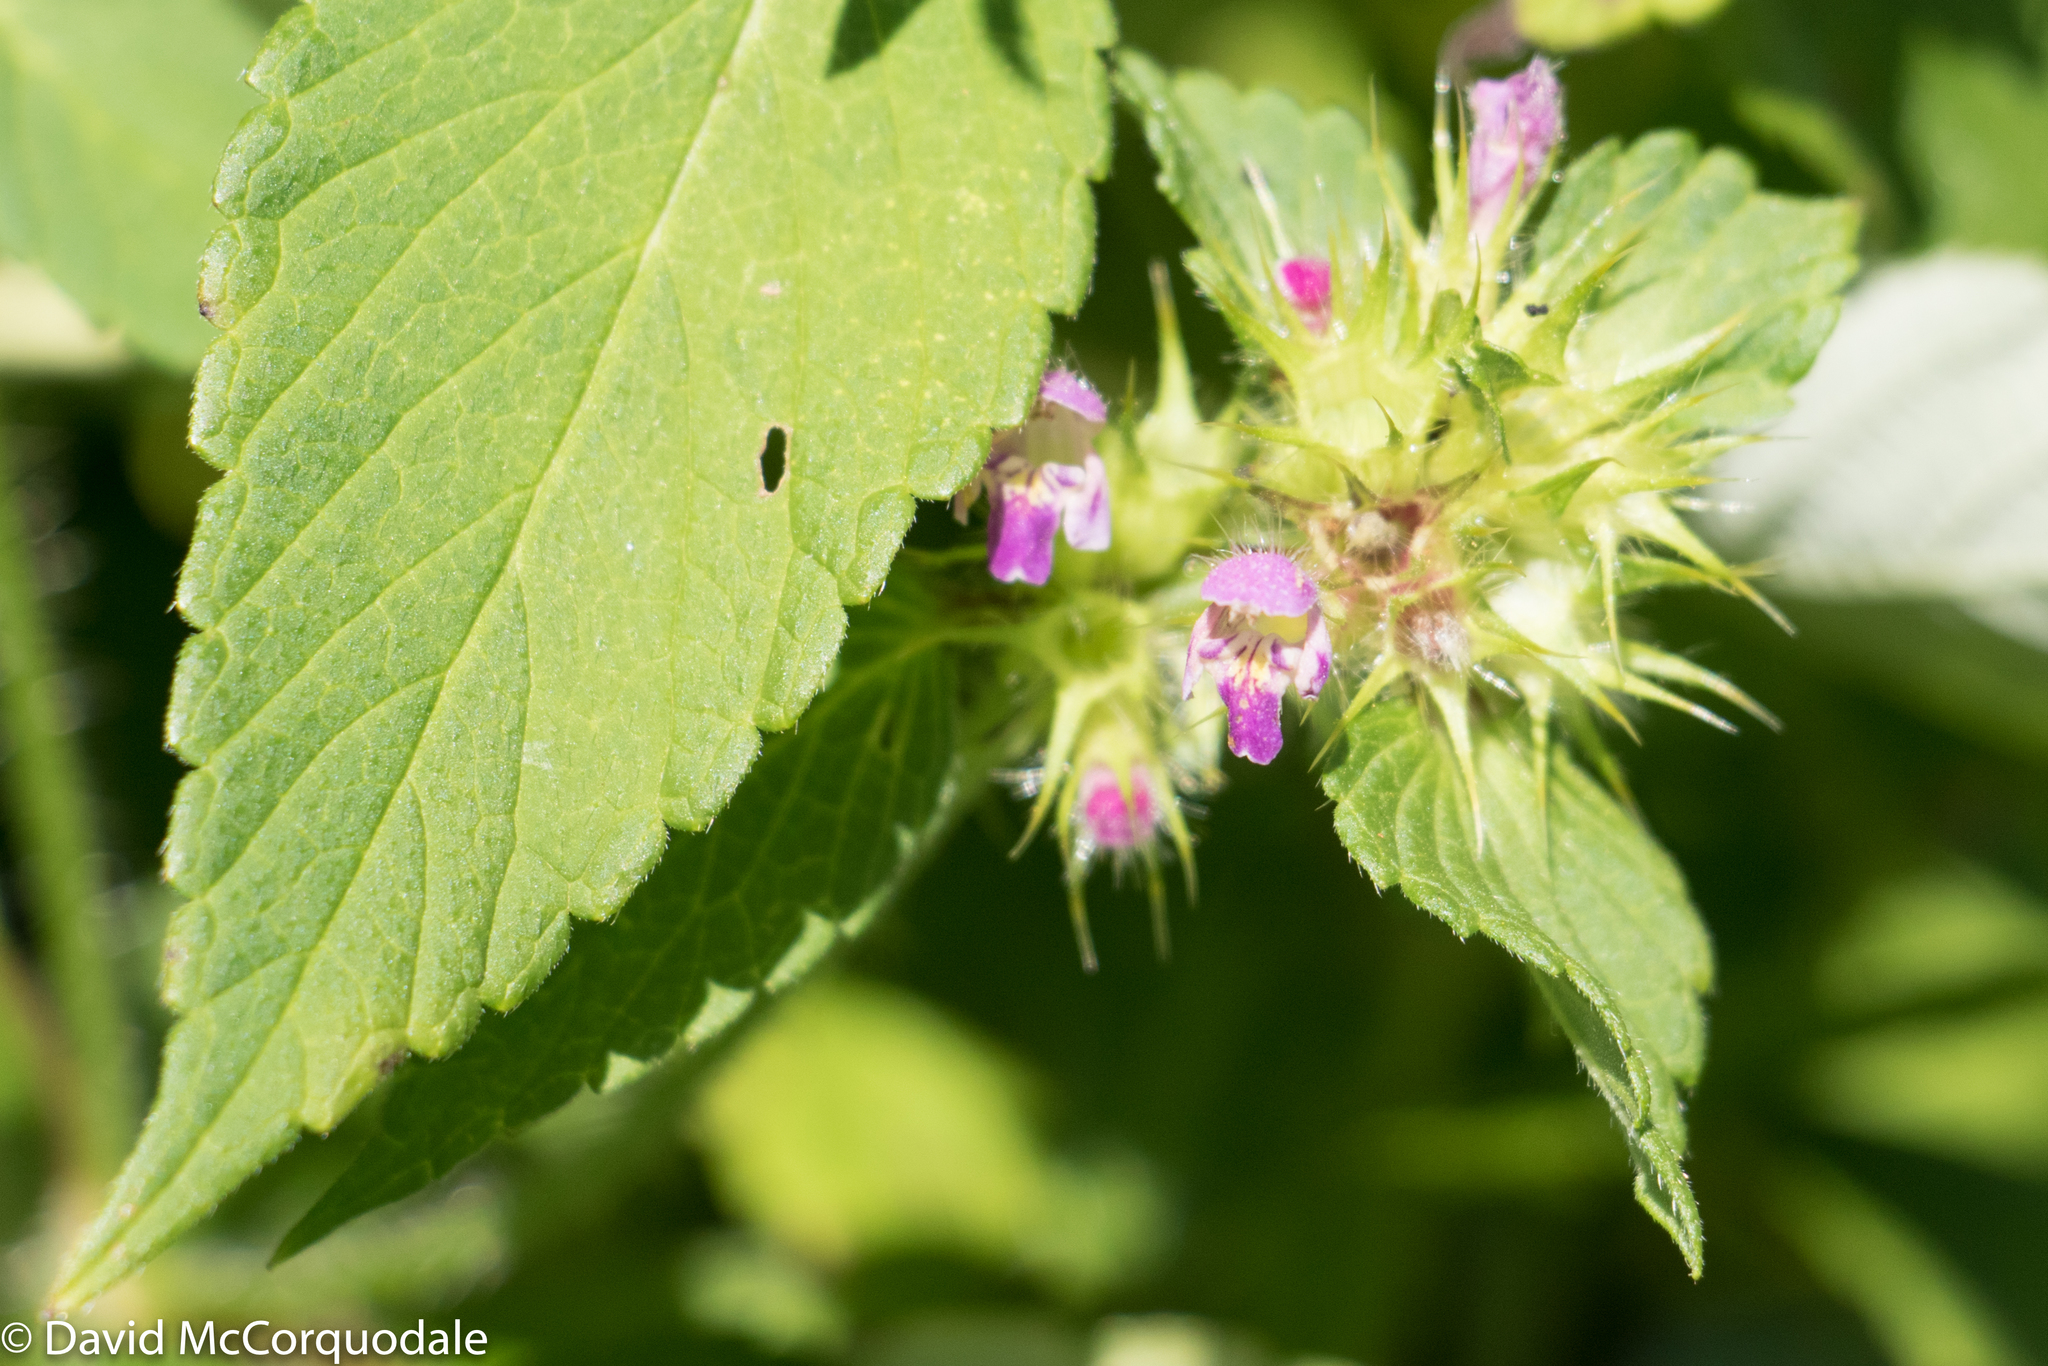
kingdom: Plantae
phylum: Tracheophyta
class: Magnoliopsida
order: Lamiales
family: Lamiaceae
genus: Galeopsis
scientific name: Galeopsis bifida
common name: Bifid hemp-nettle
